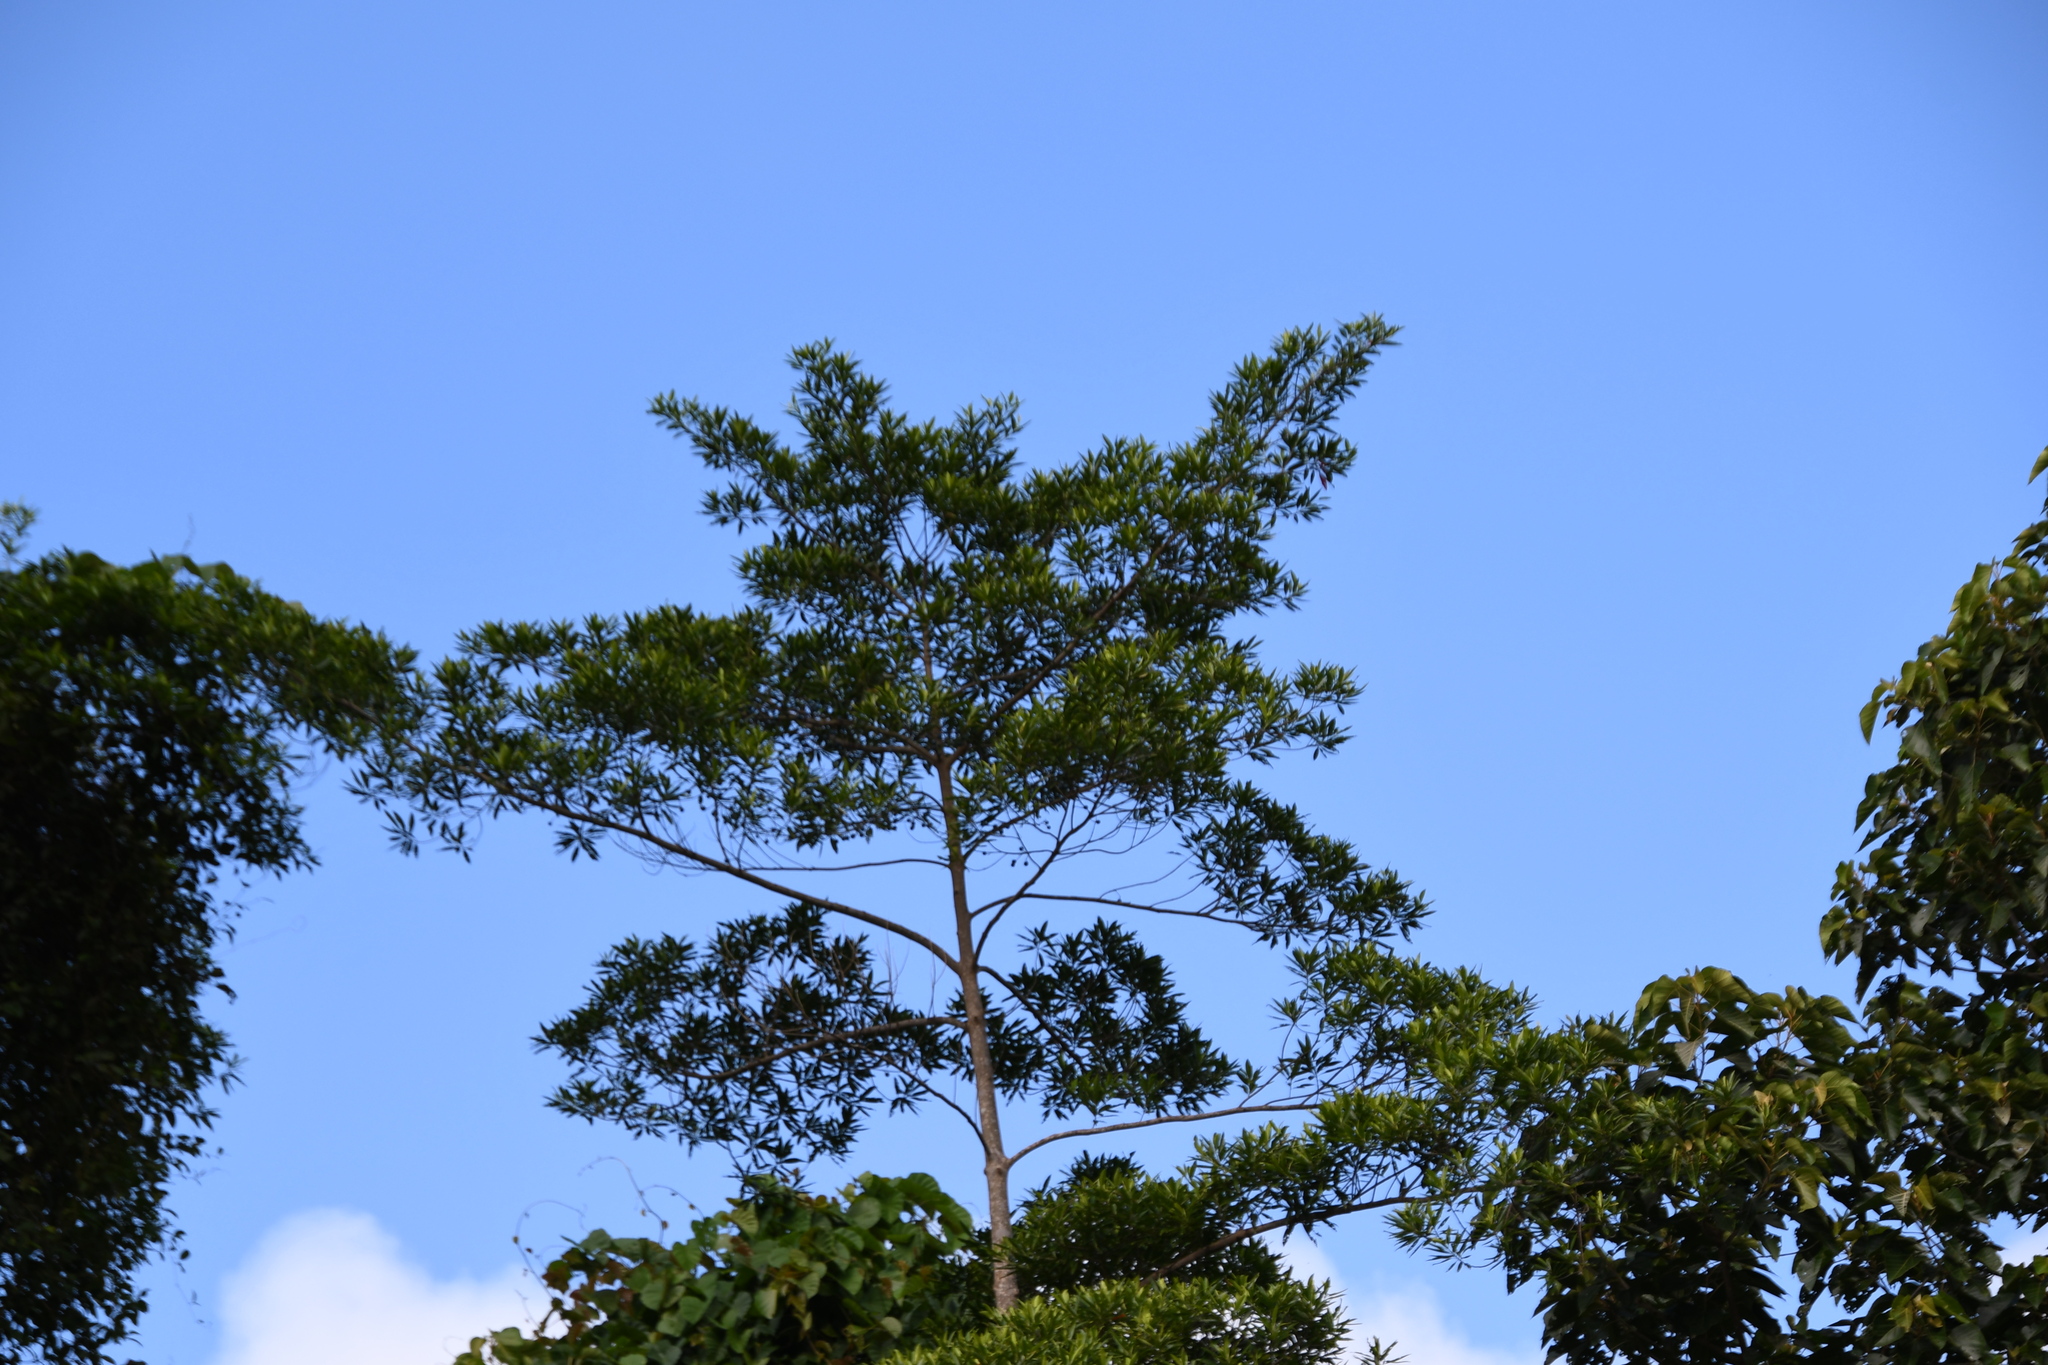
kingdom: Plantae
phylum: Tracheophyta
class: Magnoliopsida
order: Oxalidales
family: Elaeocarpaceae
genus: Elaeocarpus
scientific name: Elaeocarpus angustifolius
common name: Blue marble tree
